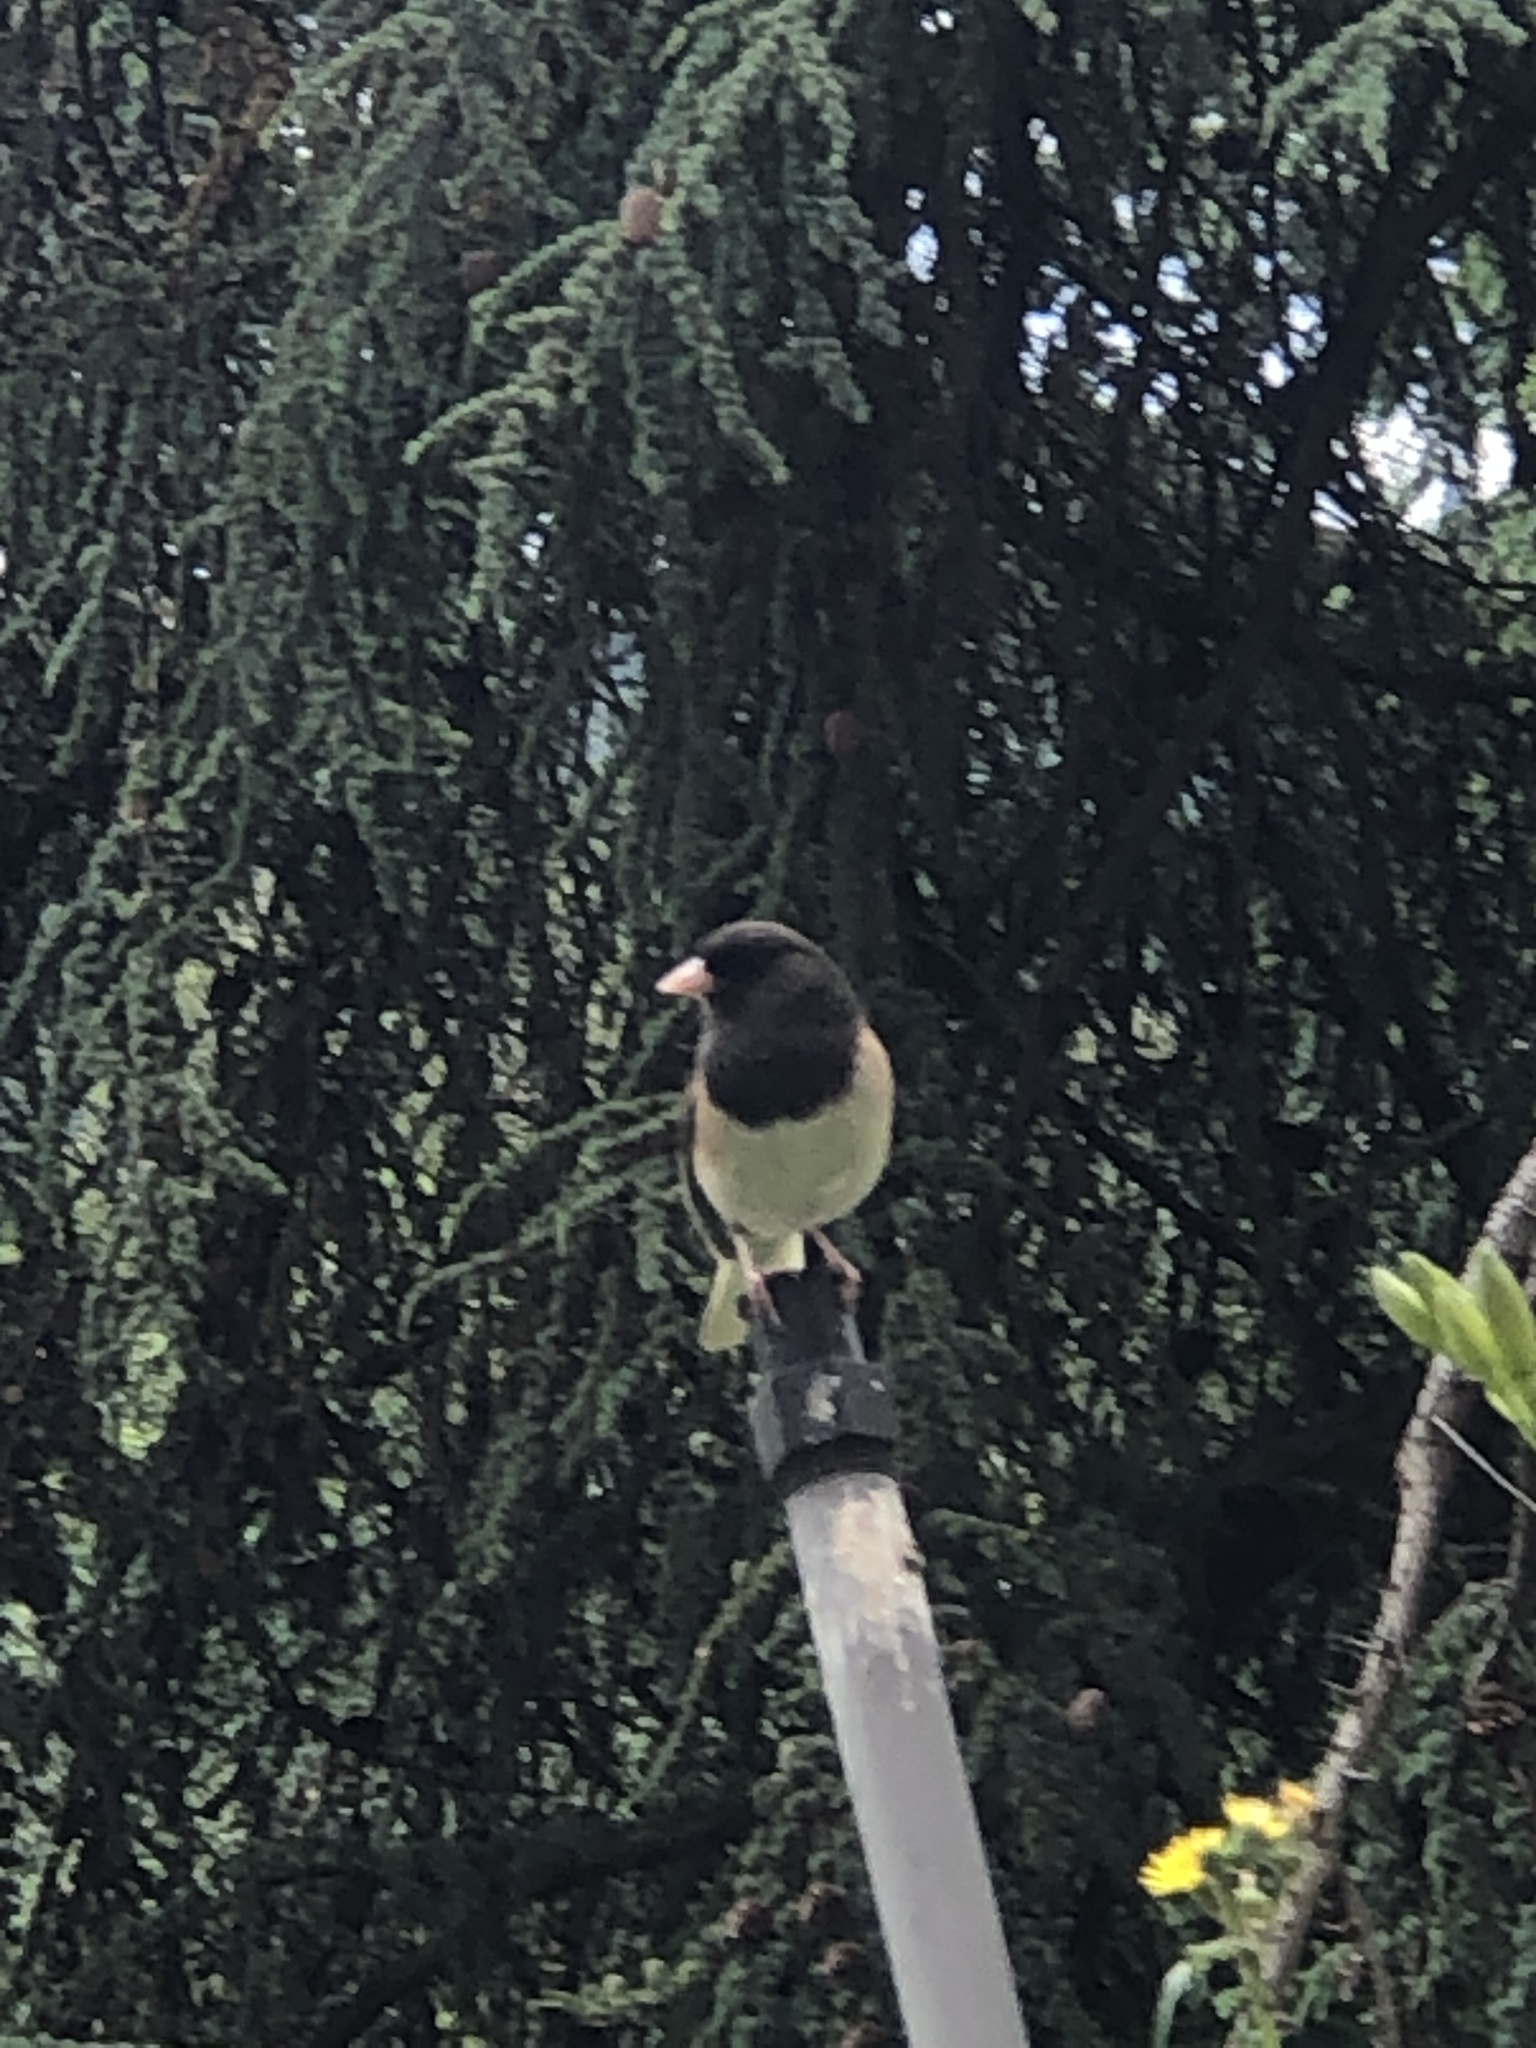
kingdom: Animalia
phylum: Chordata
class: Aves
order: Passeriformes
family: Passerellidae
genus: Junco
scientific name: Junco hyemalis
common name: Dark-eyed junco
